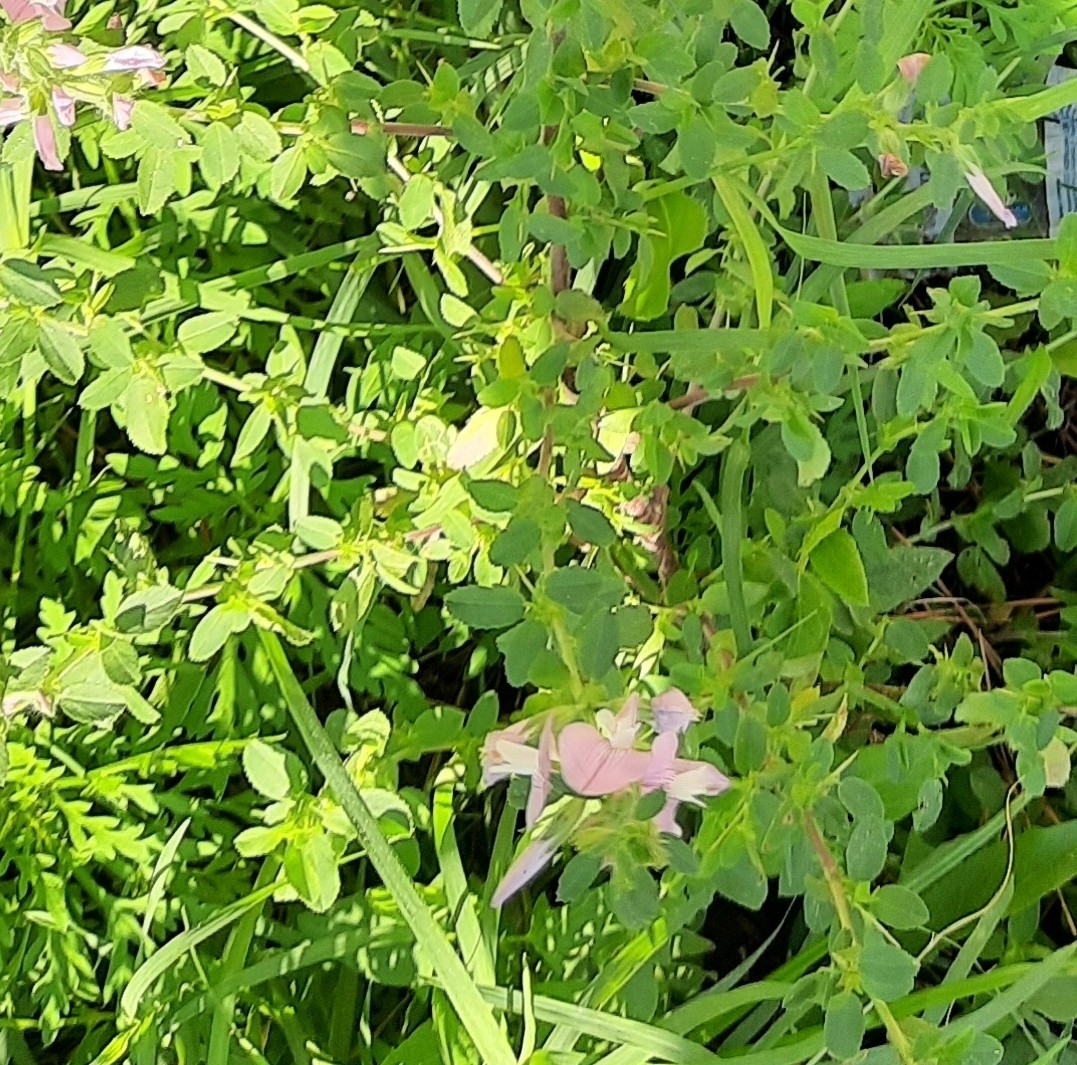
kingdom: Plantae
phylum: Tracheophyta
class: Magnoliopsida
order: Fabales
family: Fabaceae
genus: Ononis
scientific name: Ononis arvensis
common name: Field restharrow
